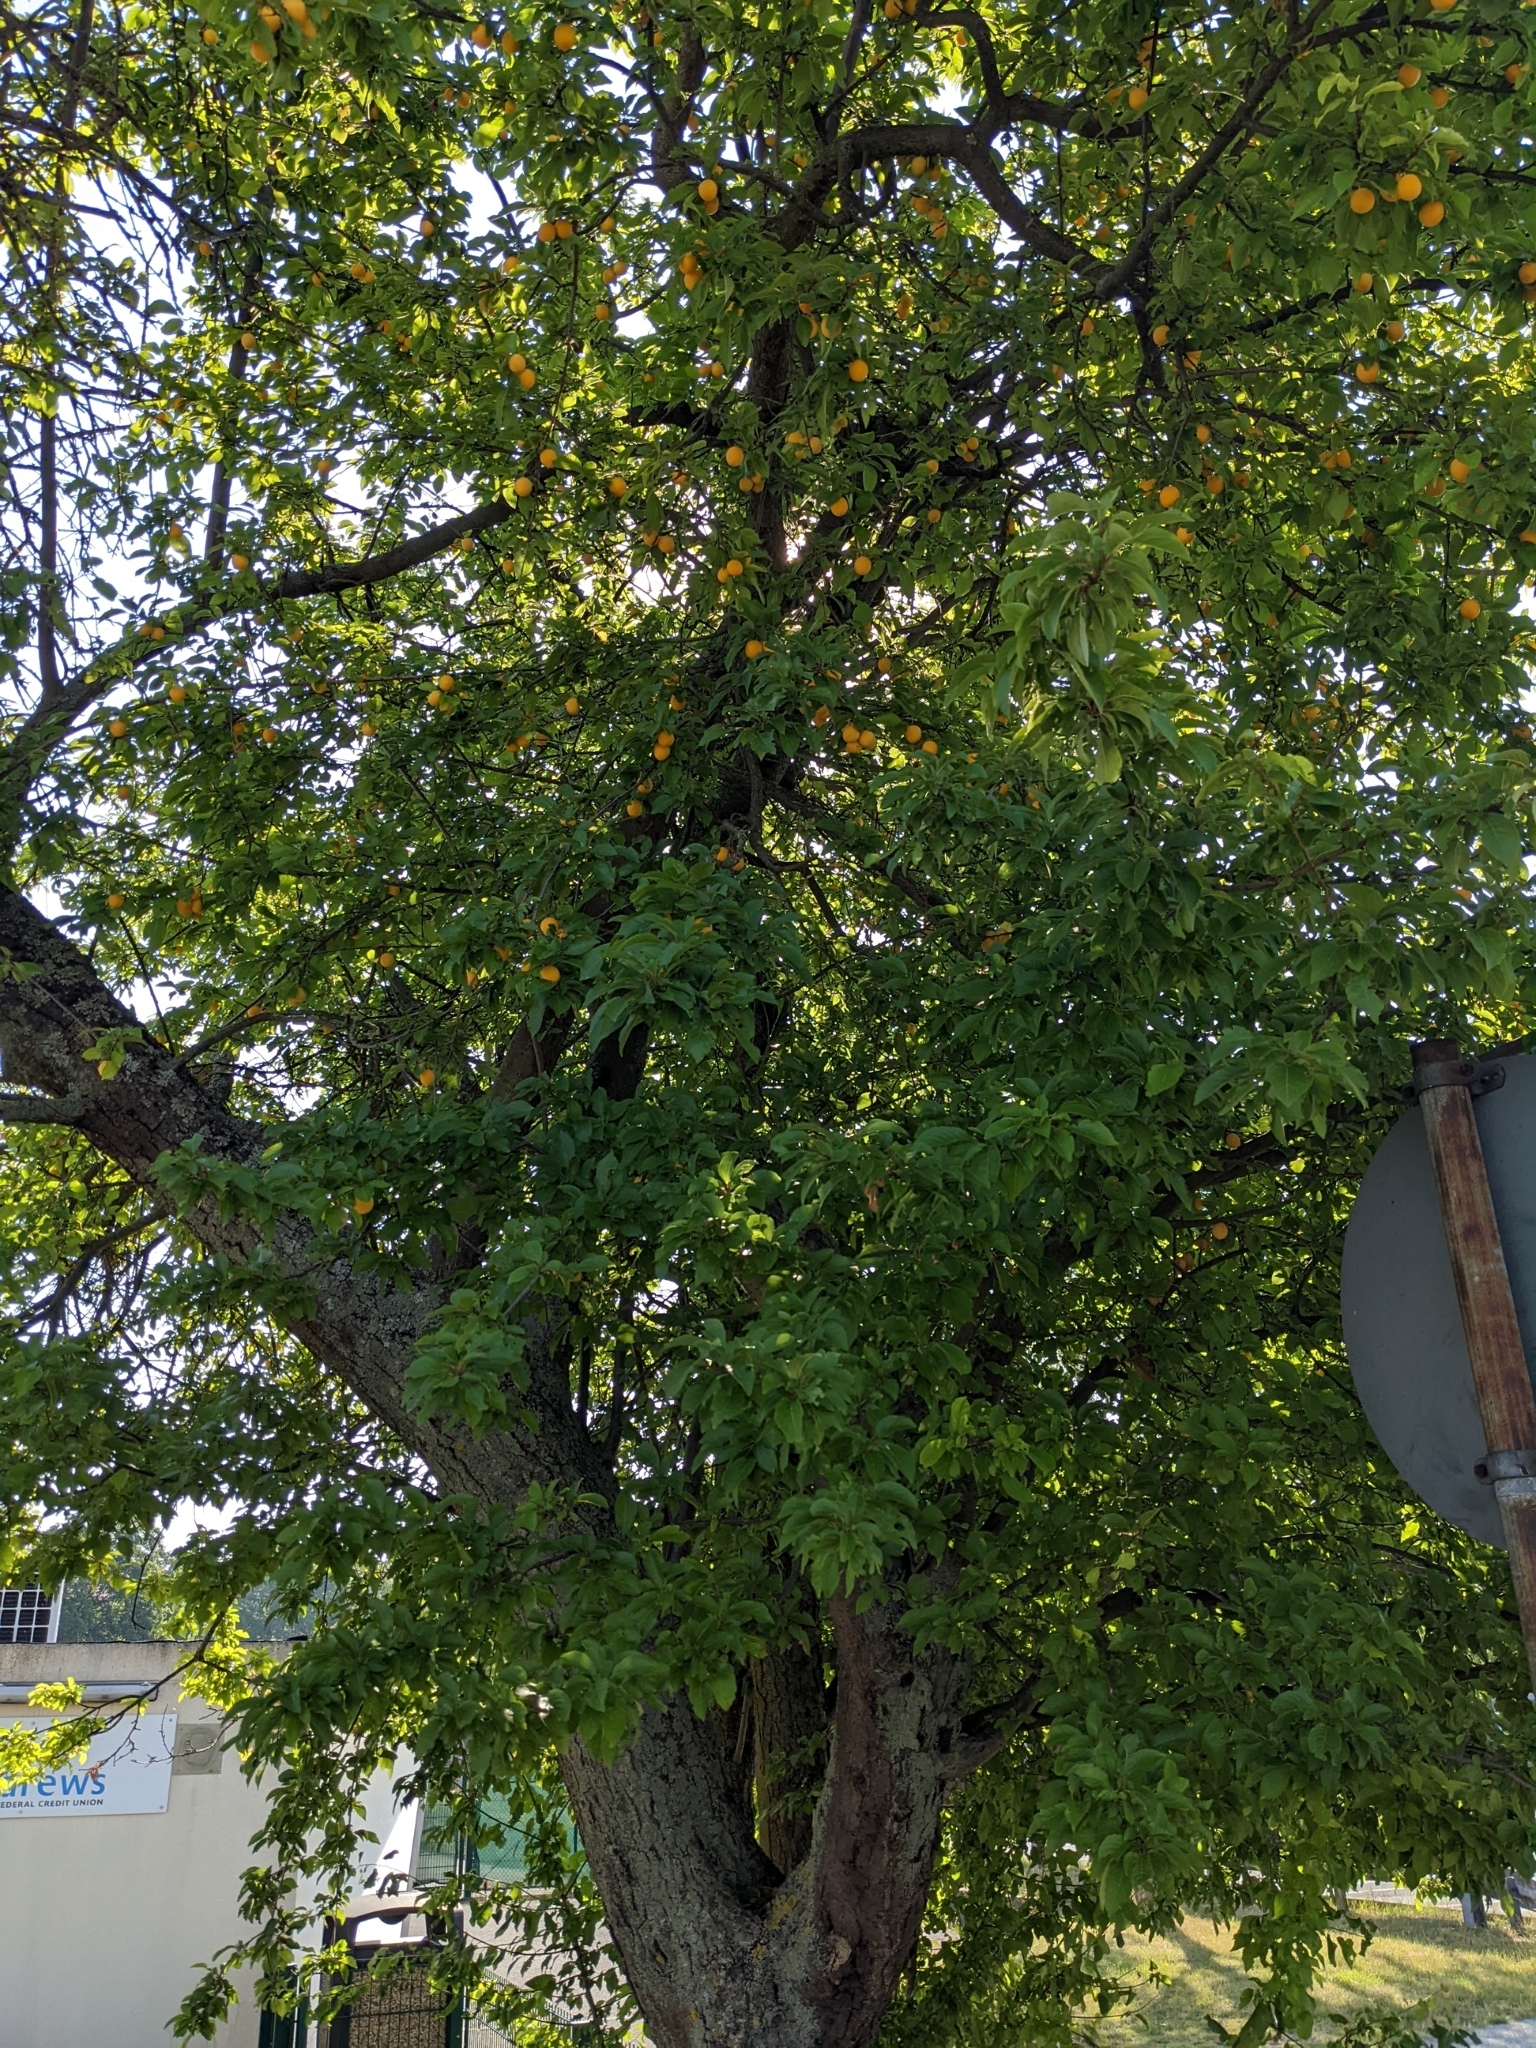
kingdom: Plantae
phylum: Tracheophyta
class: Magnoliopsida
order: Rosales
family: Rosaceae
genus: Prunus
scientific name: Prunus cerasifera
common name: Cherry plum
